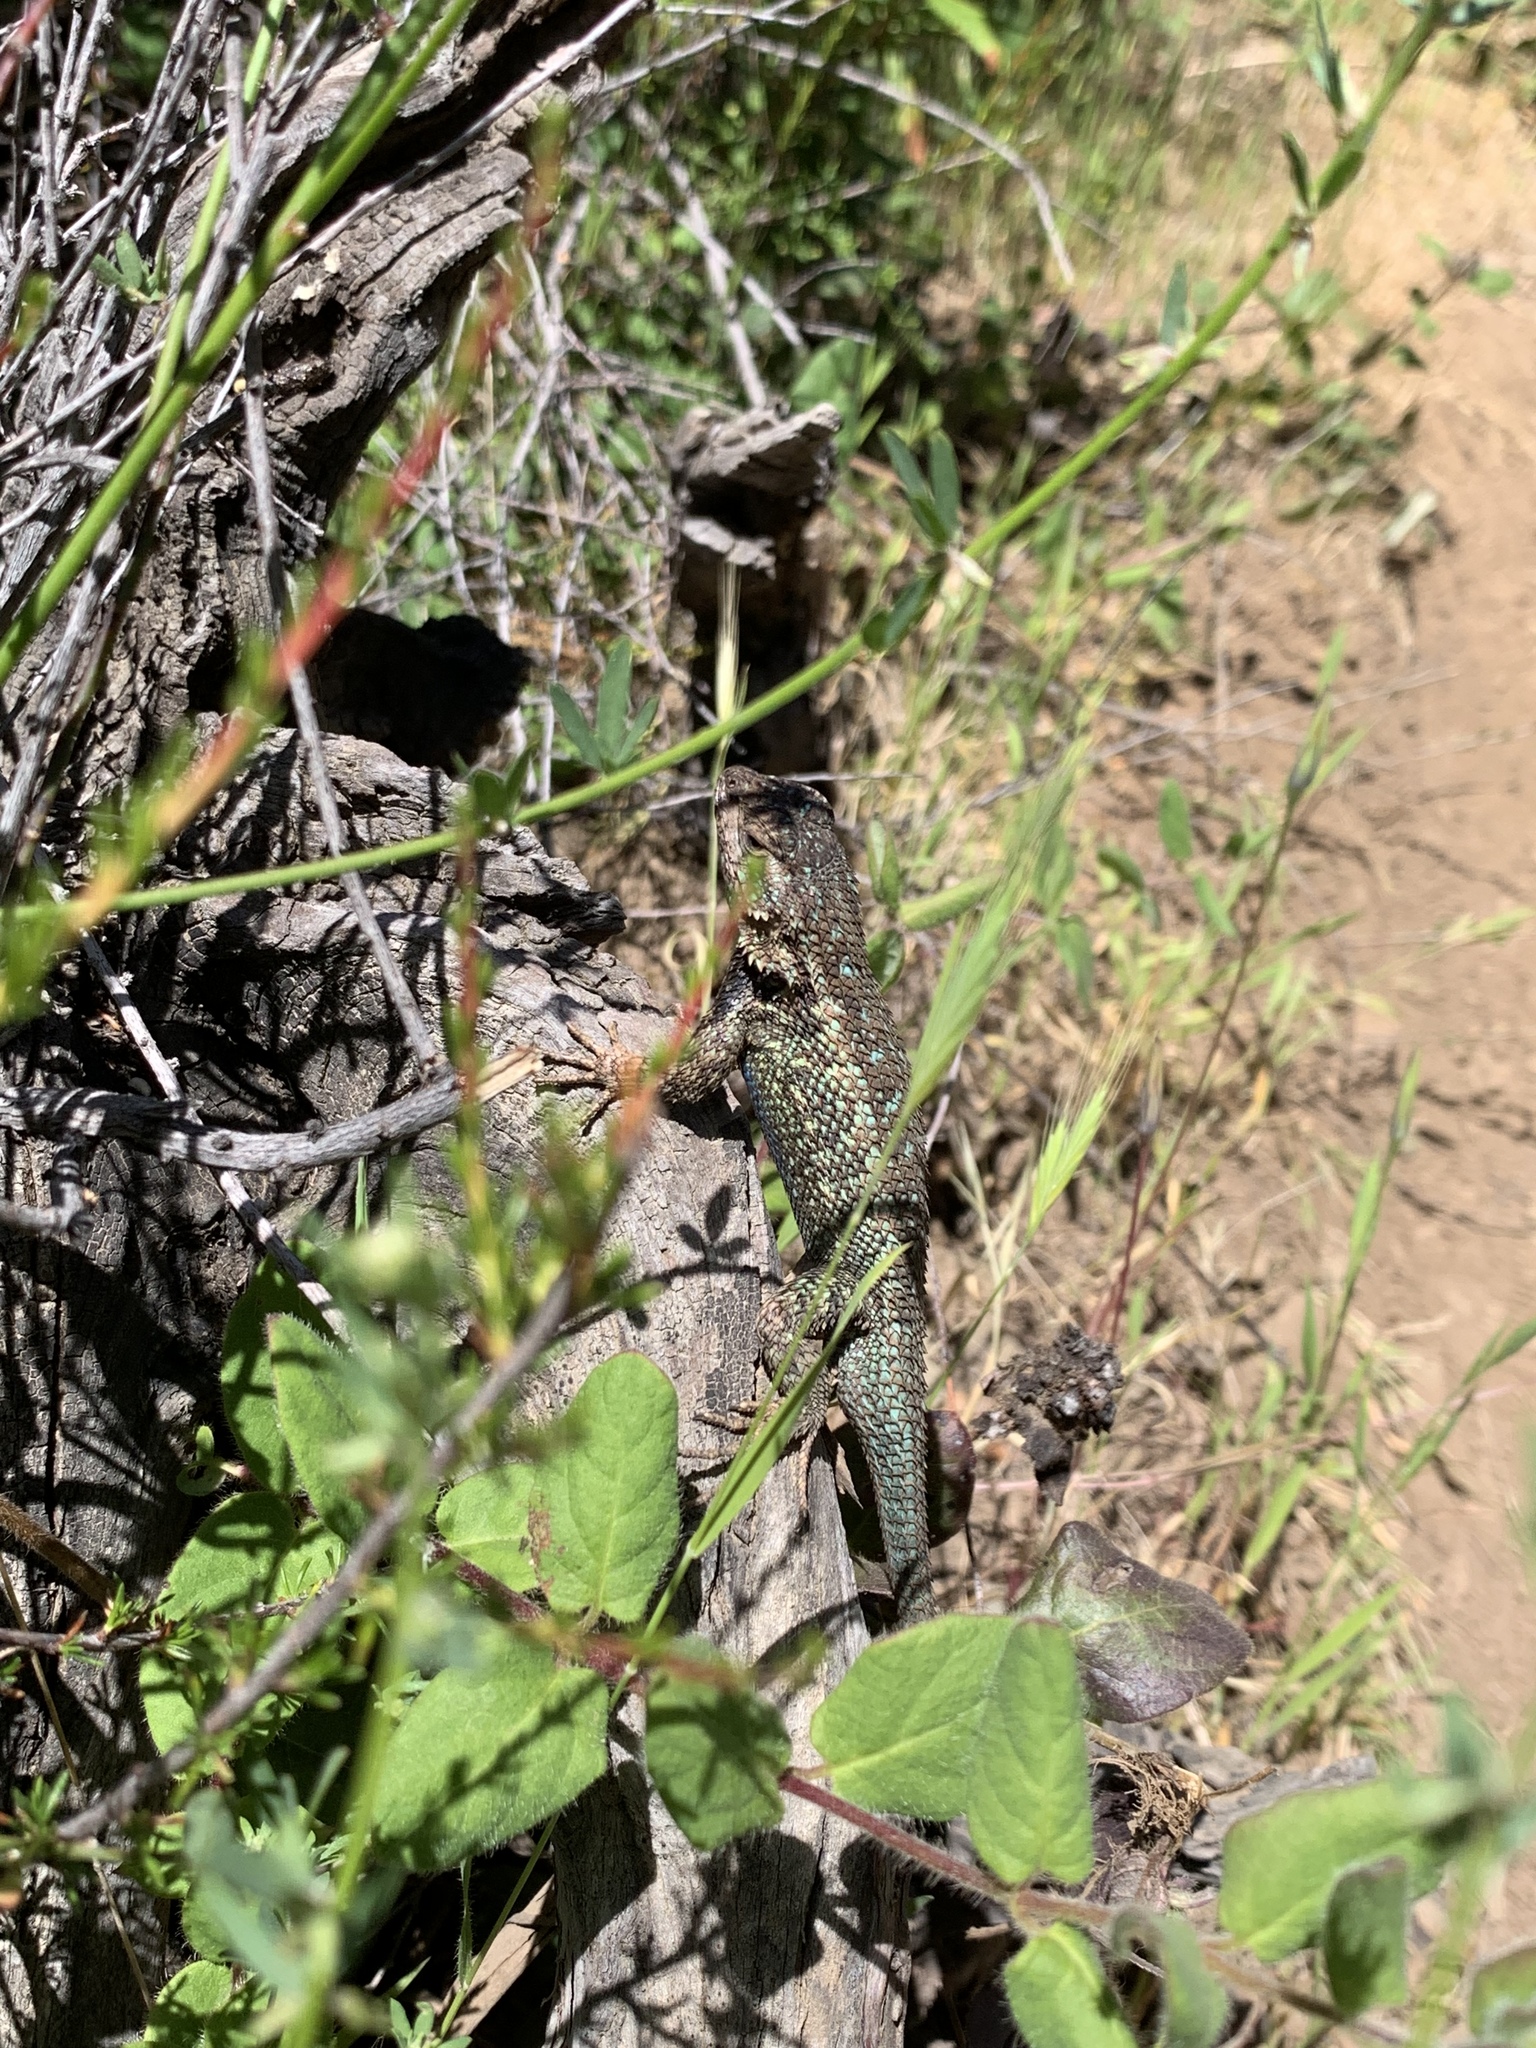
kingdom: Animalia
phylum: Chordata
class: Squamata
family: Phrynosomatidae
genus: Sceloporus
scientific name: Sceloporus occidentalis
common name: Western fence lizard
